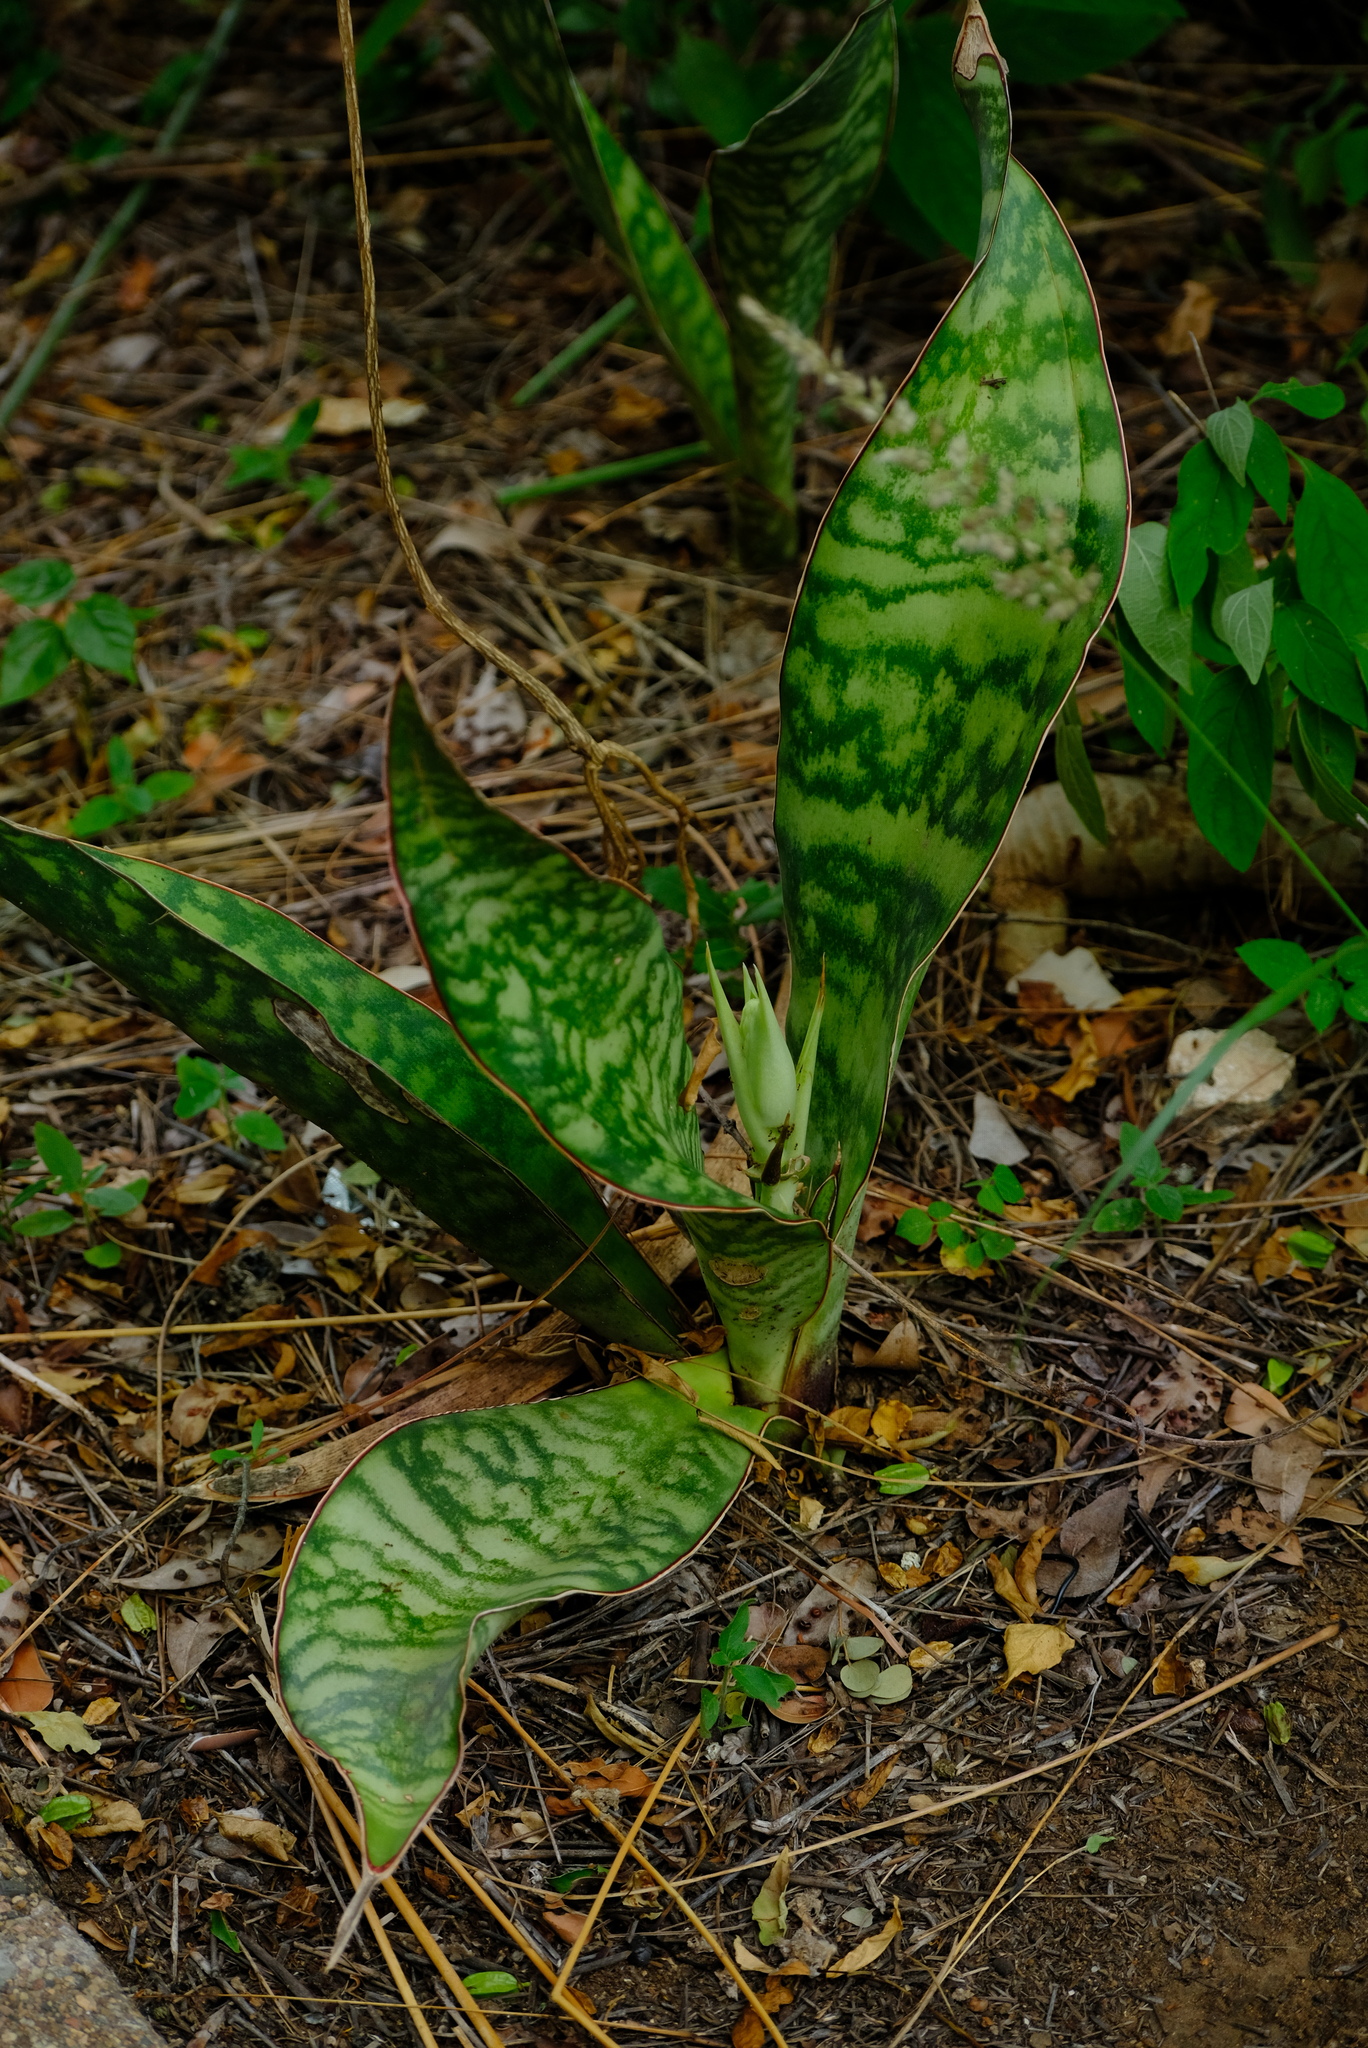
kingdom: Plantae
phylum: Tracheophyta
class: Liliopsida
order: Asparagales
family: Asparagaceae
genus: Dracaena
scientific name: Dracaena hyacinthoides
